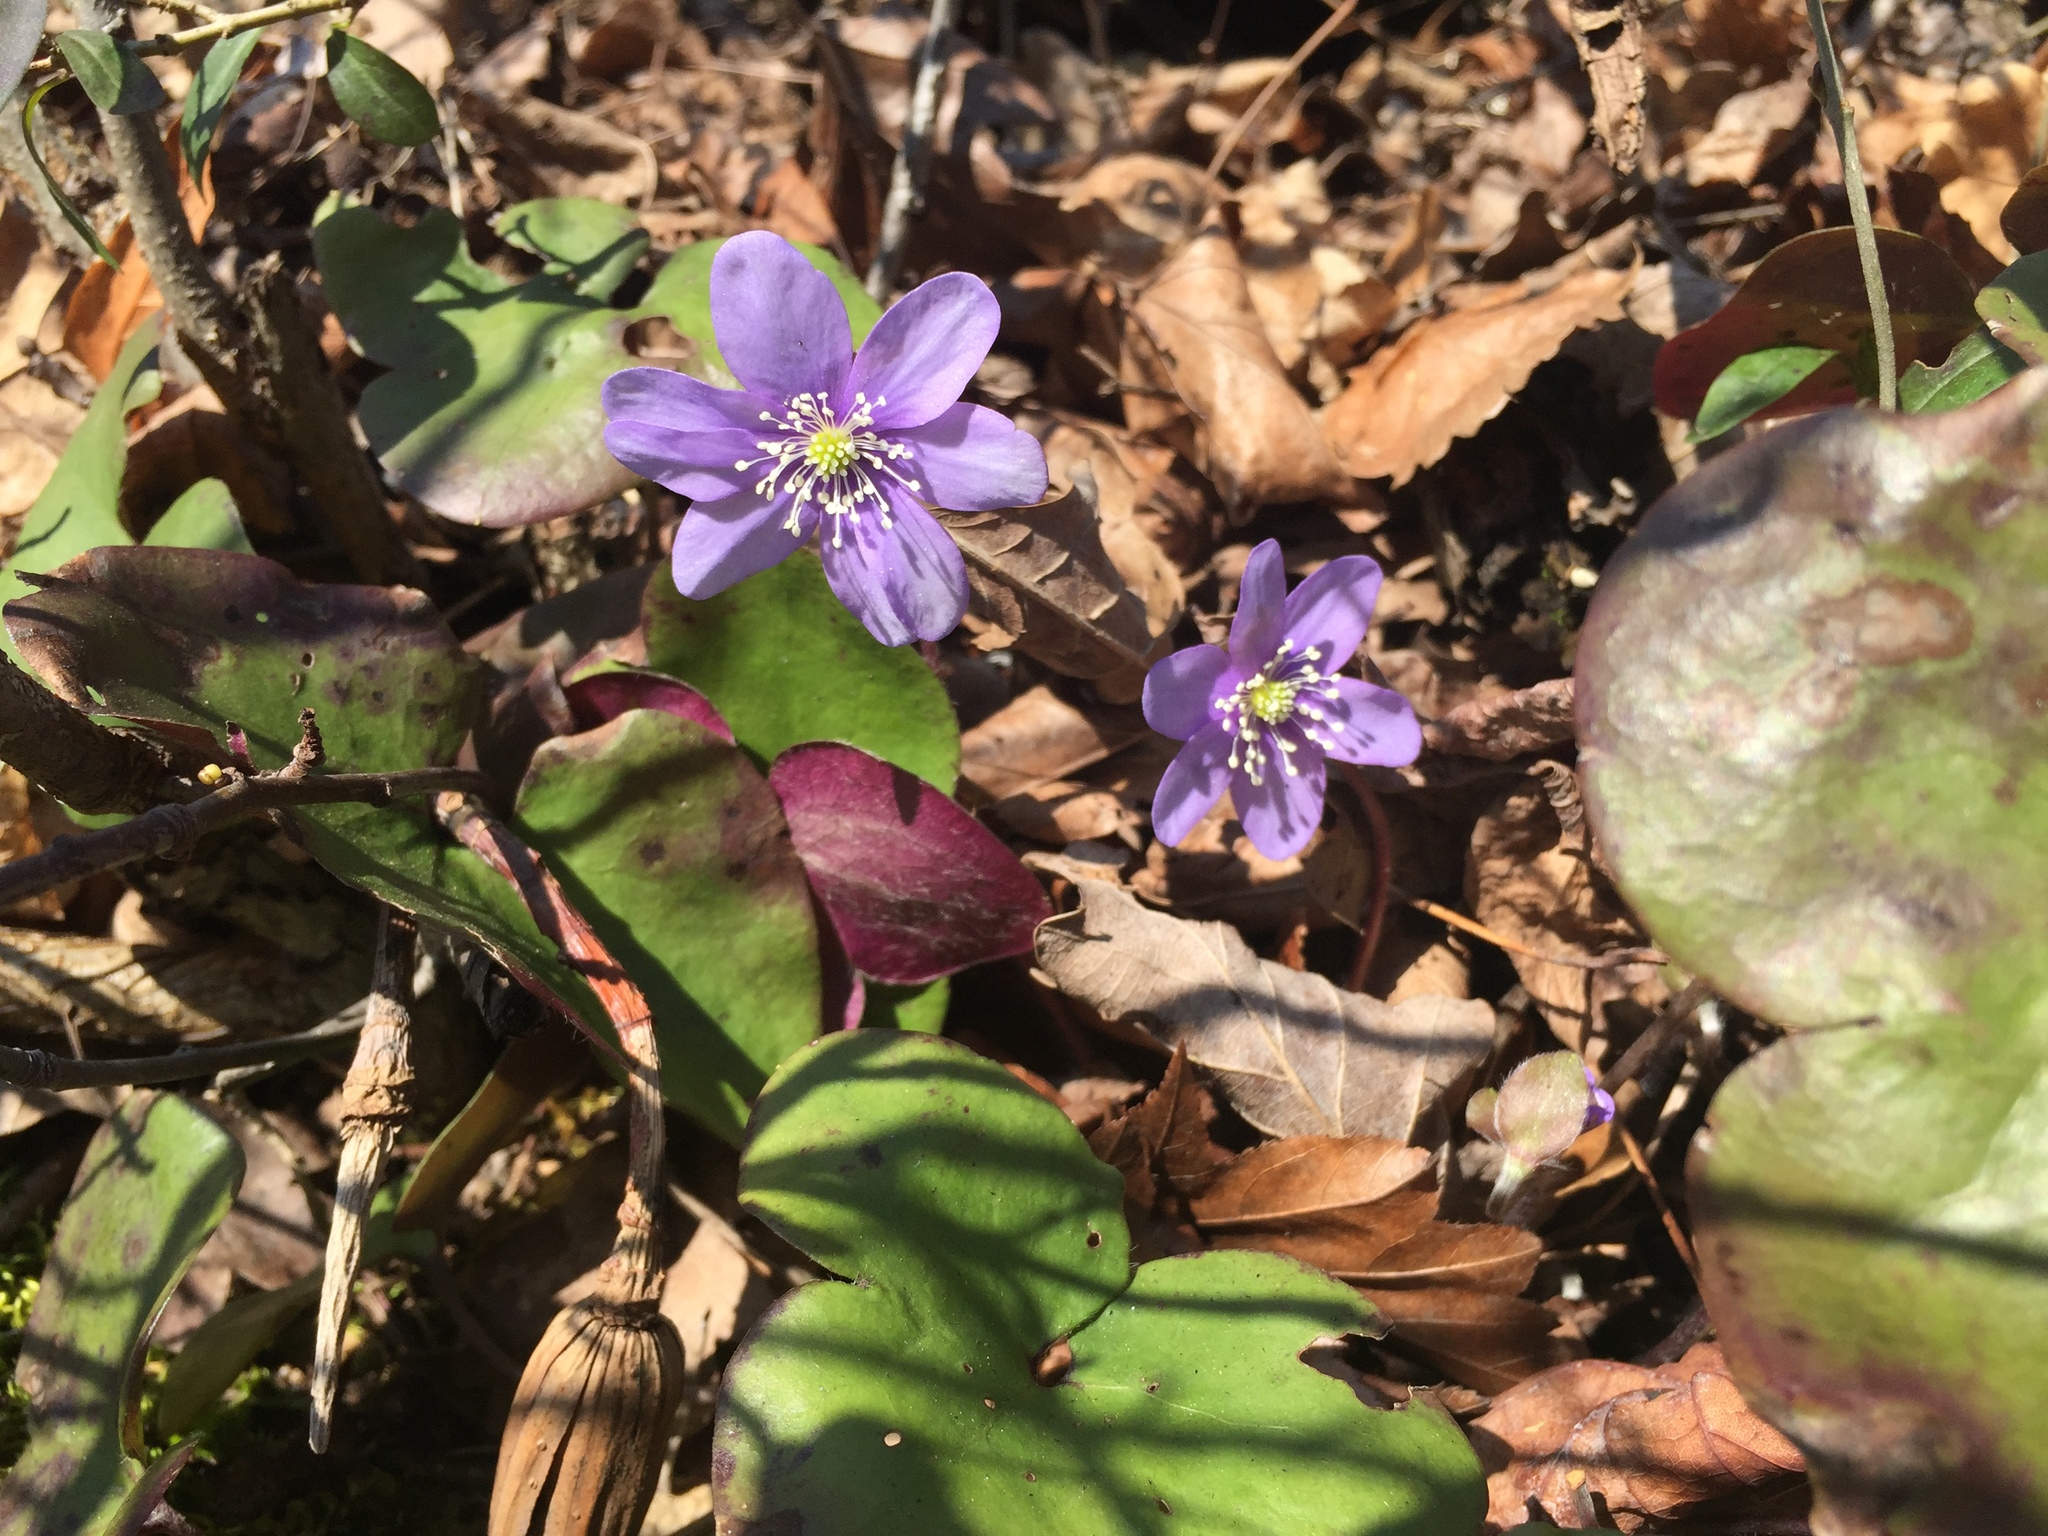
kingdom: Plantae
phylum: Tracheophyta
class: Magnoliopsida
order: Ranunculales
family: Ranunculaceae
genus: Hepatica
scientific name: Hepatica nobilis
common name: Liverleaf
